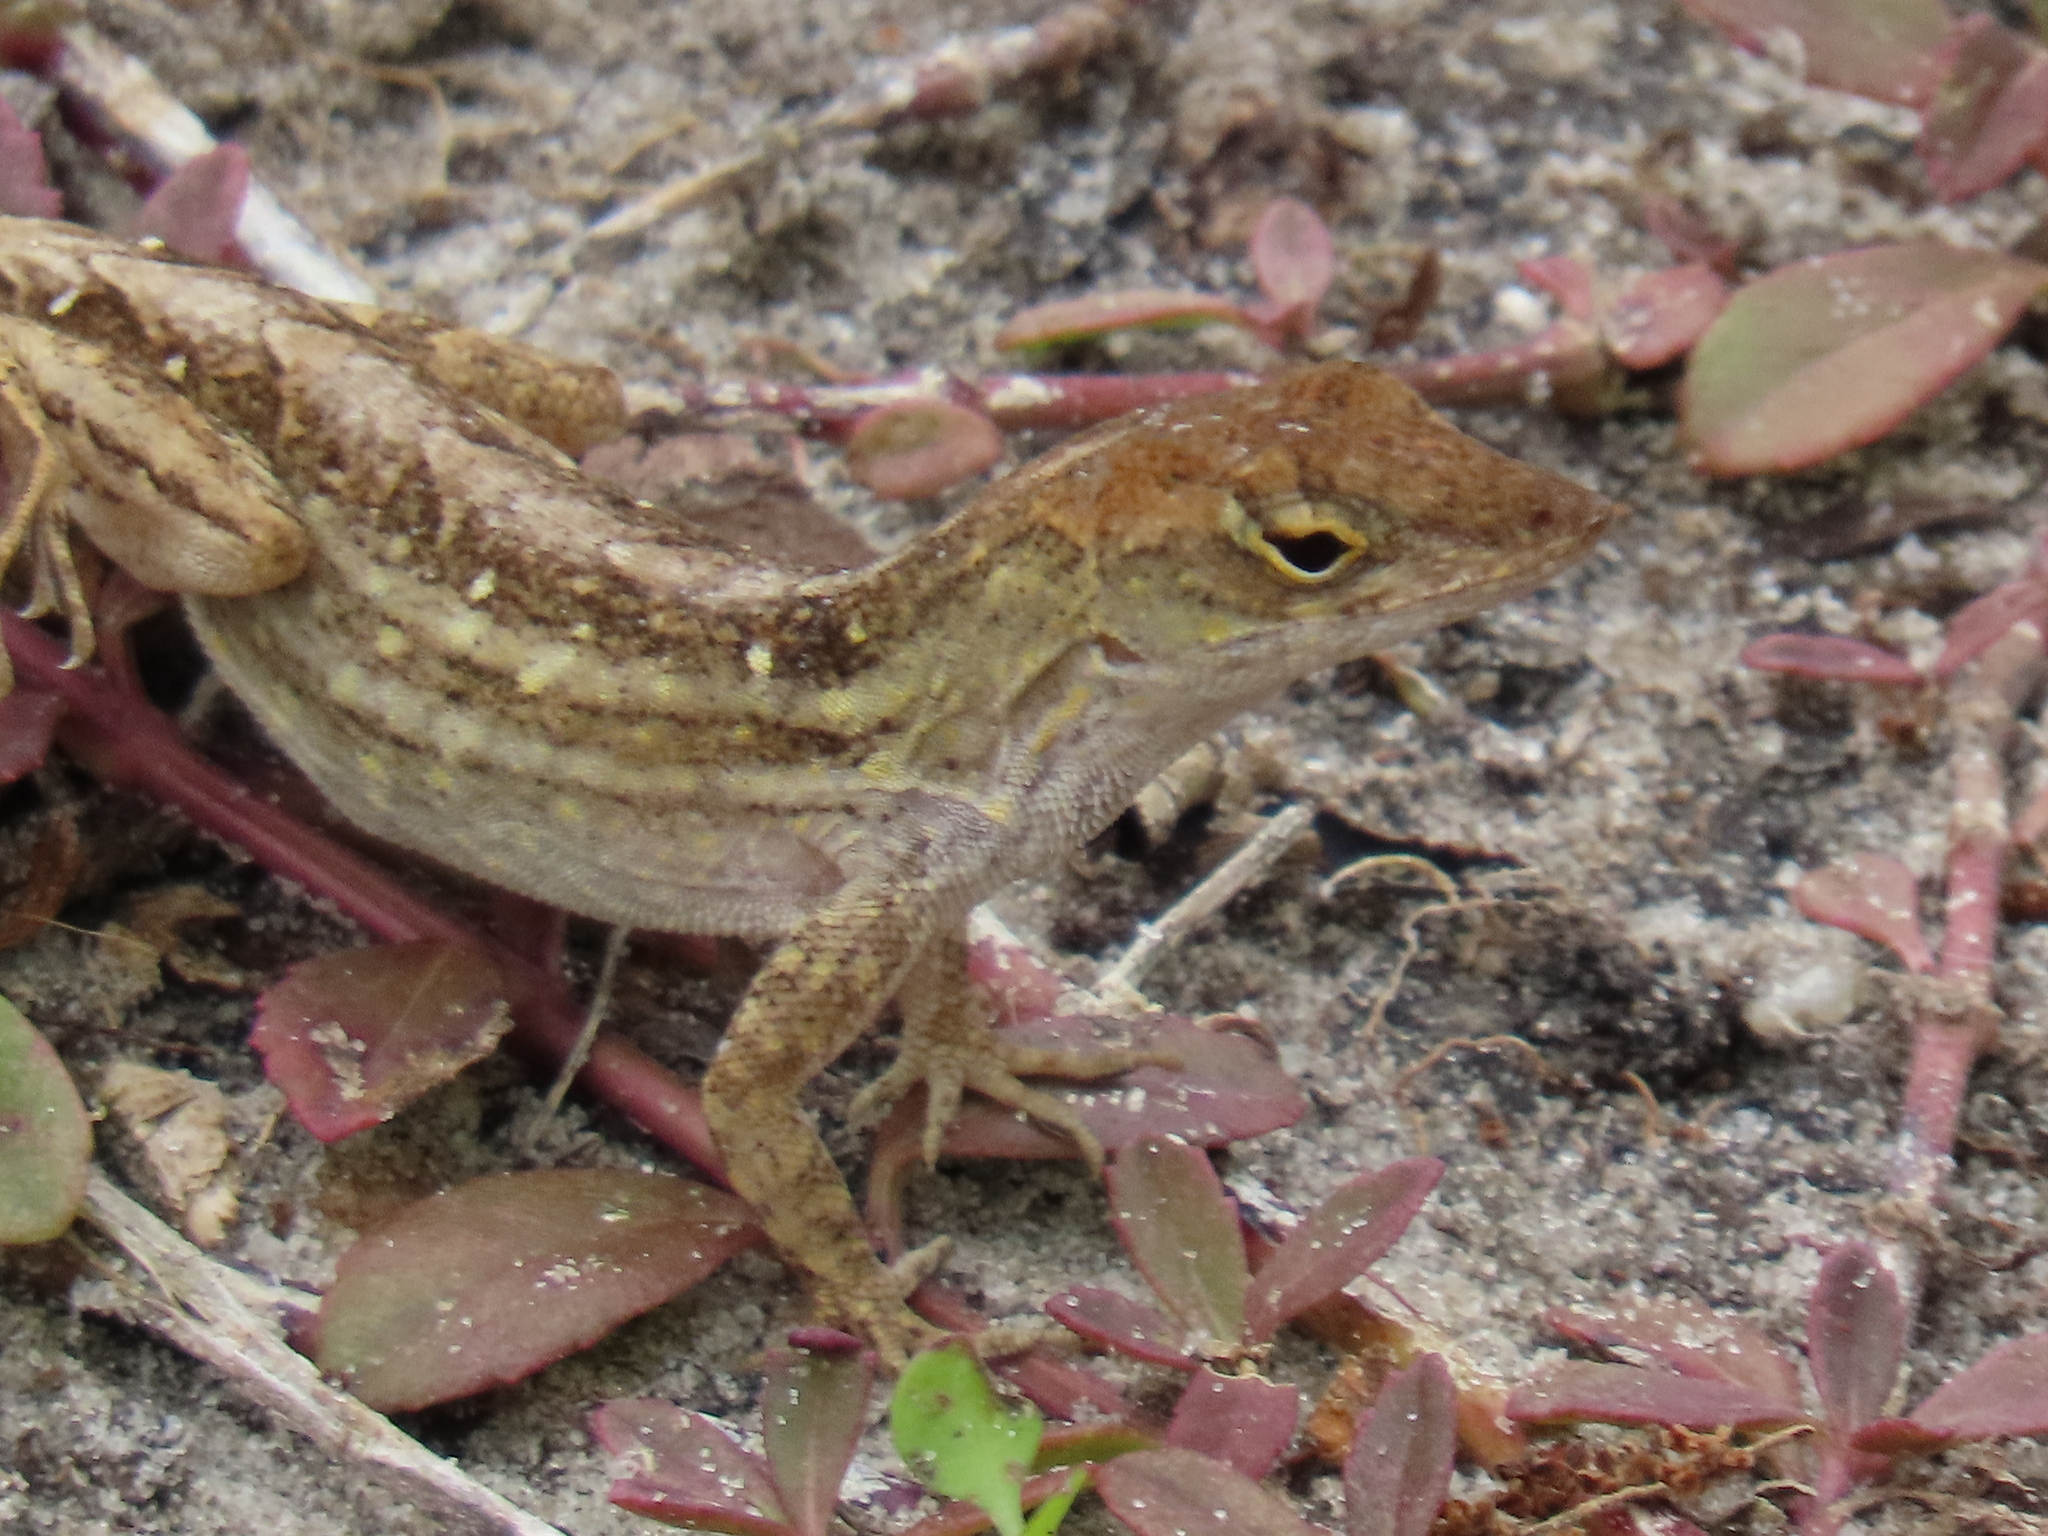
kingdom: Animalia
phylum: Chordata
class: Squamata
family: Dactyloidae
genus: Anolis
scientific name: Anolis sagrei
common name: Brown anole
